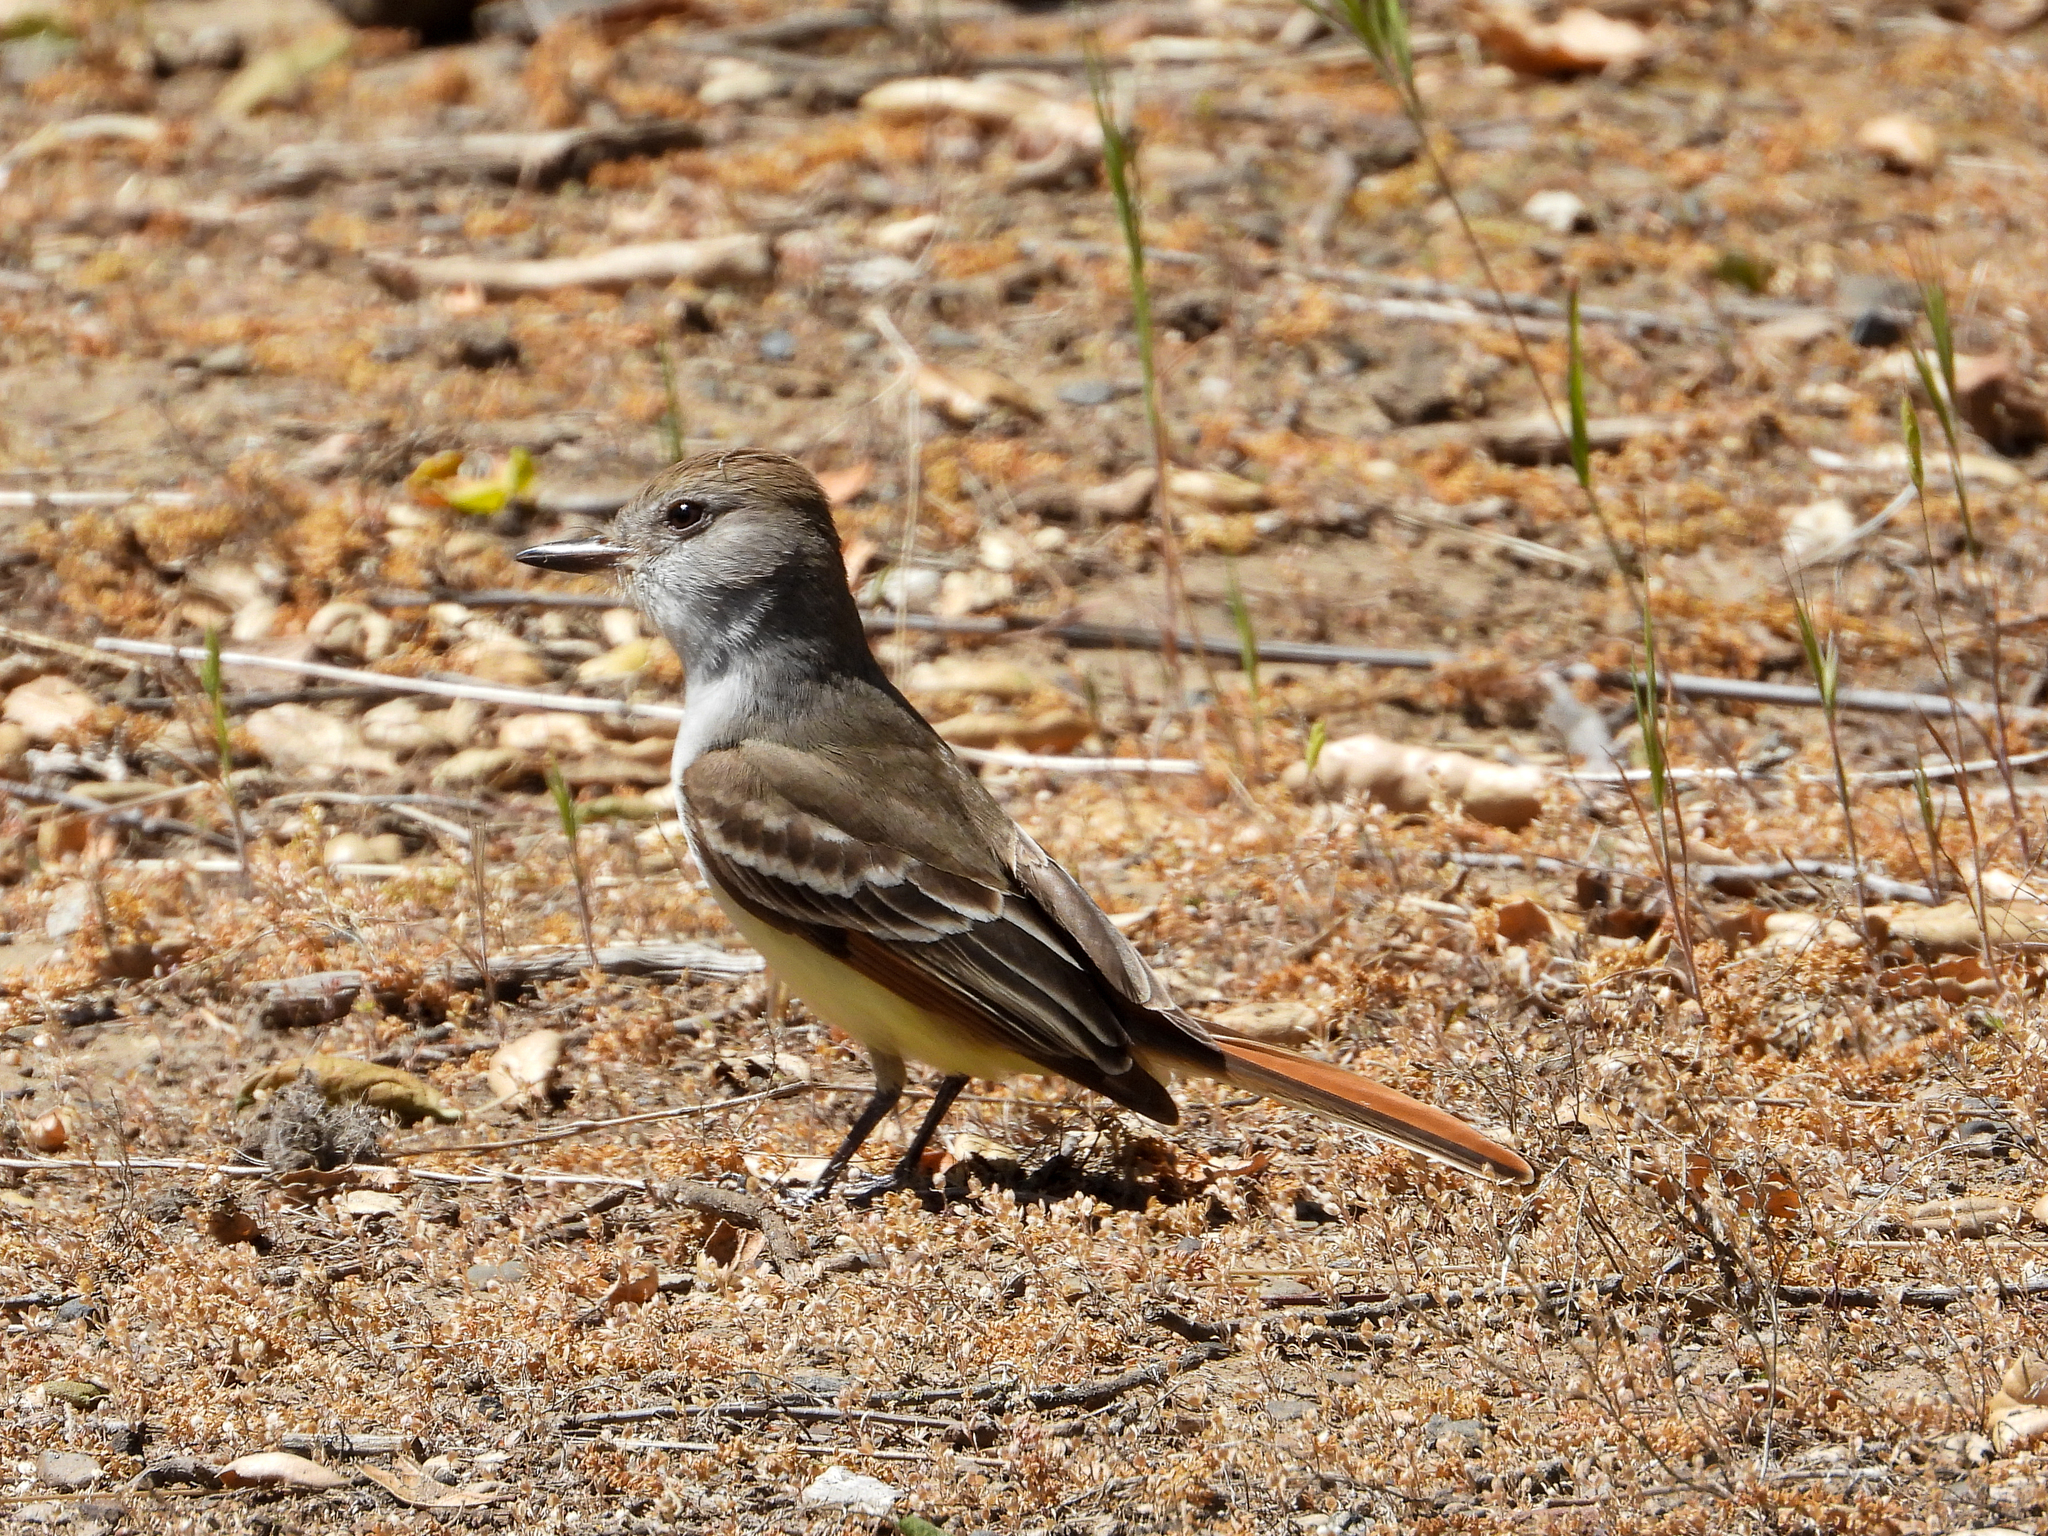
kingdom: Animalia
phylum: Chordata
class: Aves
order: Passeriformes
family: Tyrannidae
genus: Myiarchus
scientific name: Myiarchus cinerascens
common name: Ash-throated flycatcher
